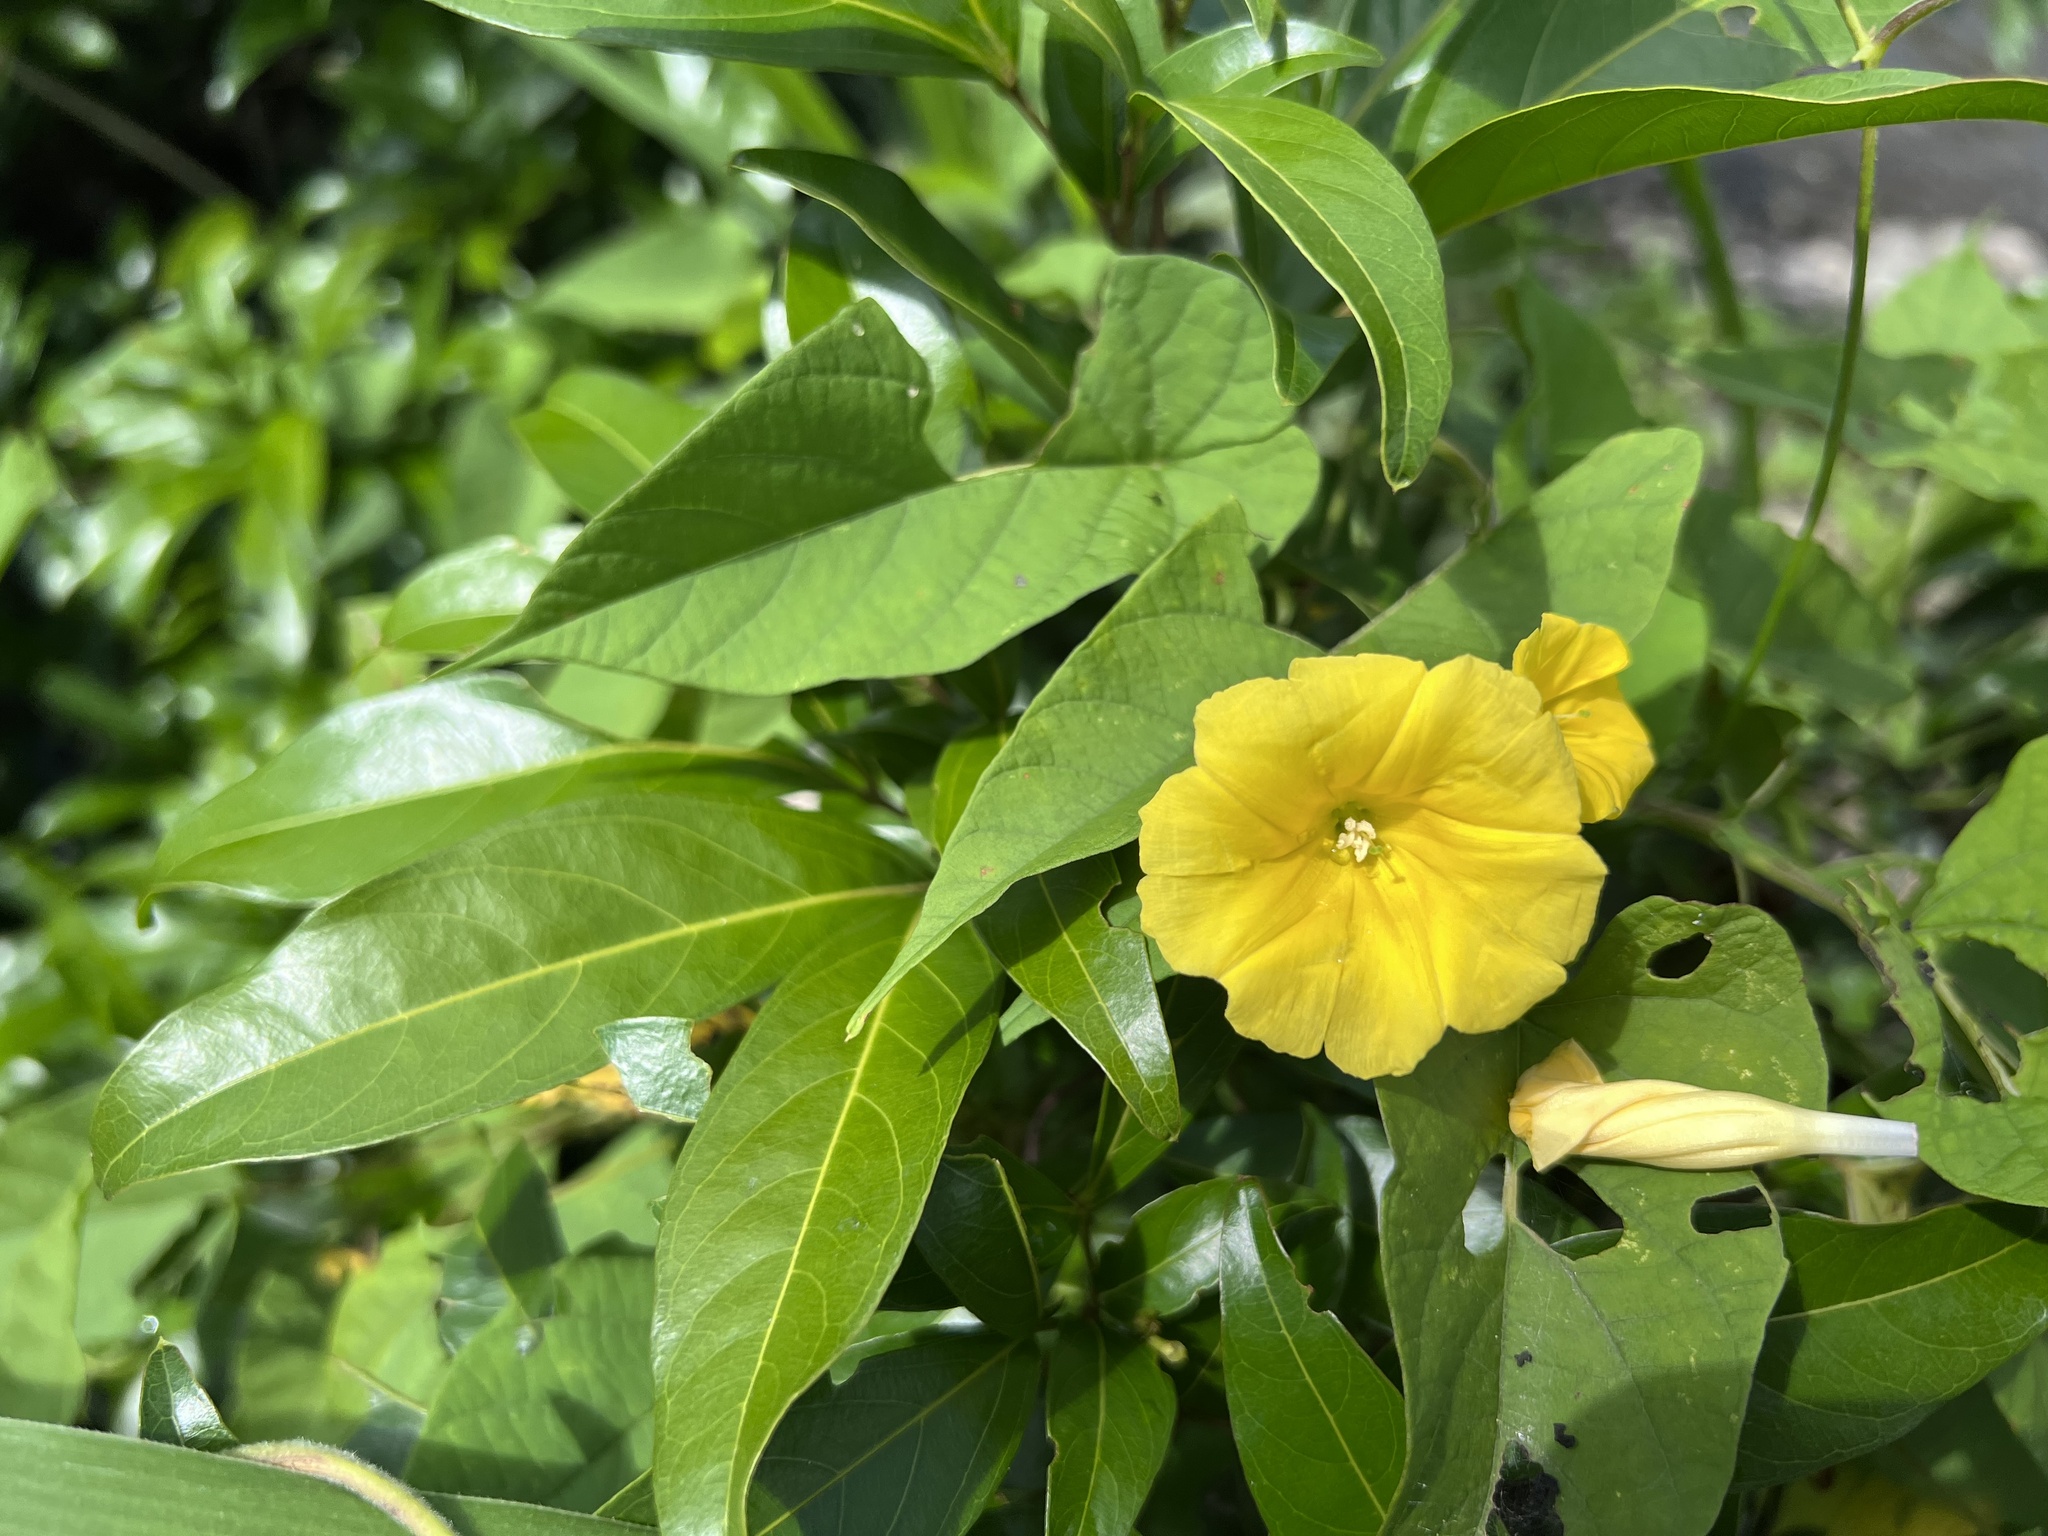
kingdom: Plantae
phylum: Tracheophyta
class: Magnoliopsida
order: Solanales
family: Convolvulaceae
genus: Camonea
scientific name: Camonea umbellata
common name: Hogvine
